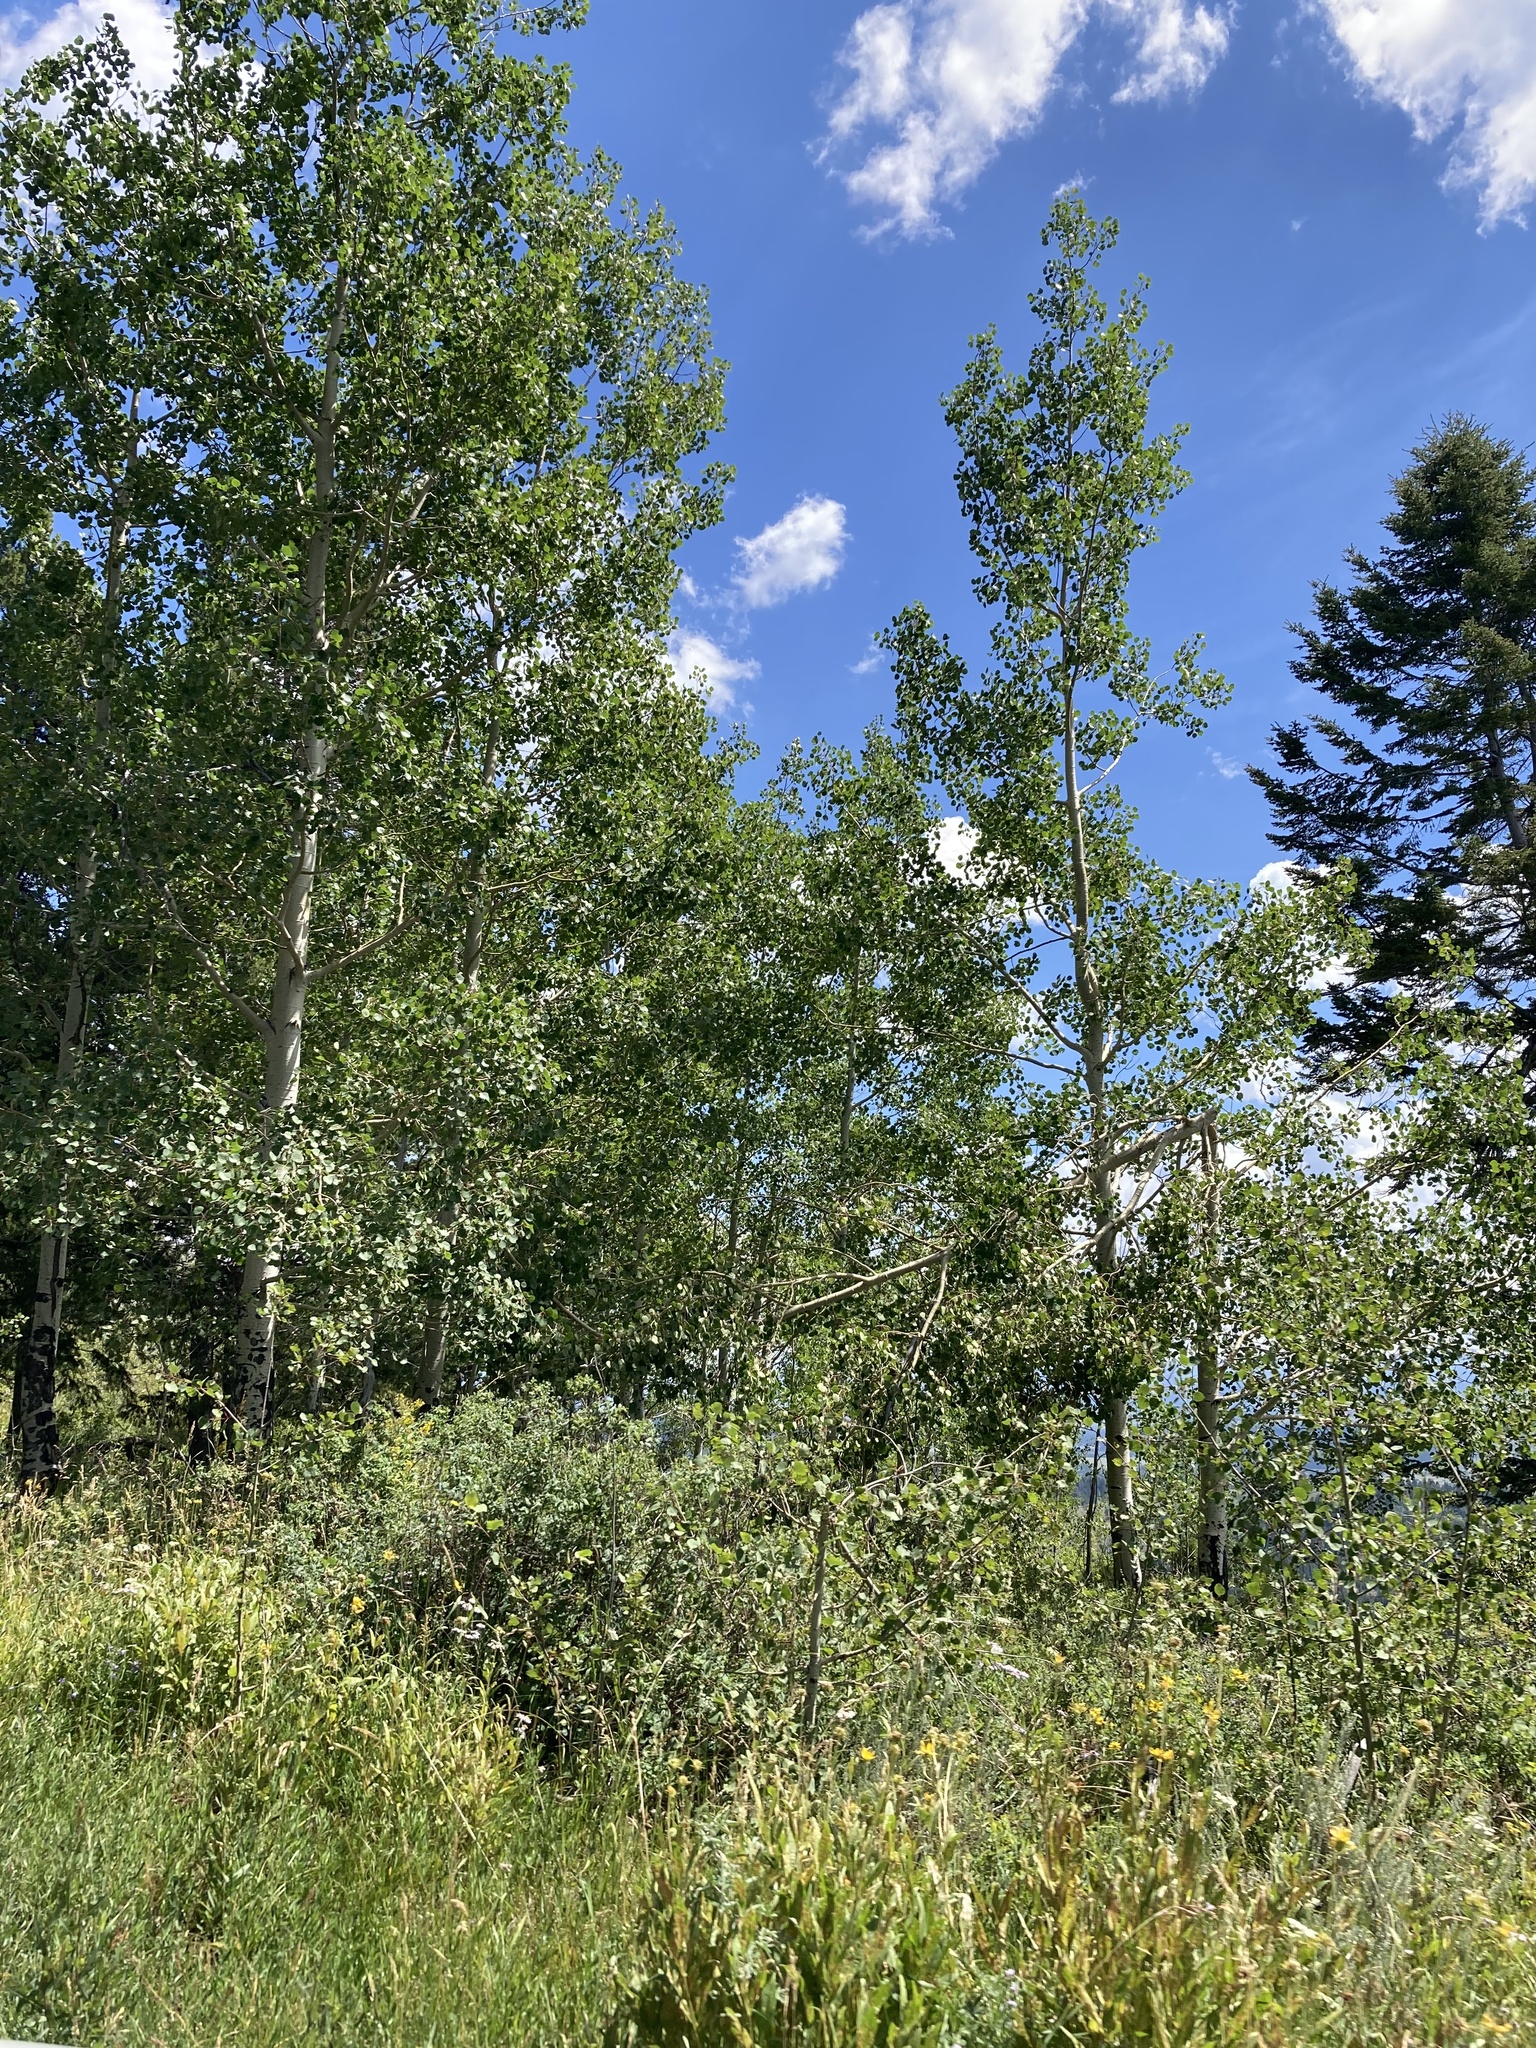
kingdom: Plantae
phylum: Tracheophyta
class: Magnoliopsida
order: Malpighiales
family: Salicaceae
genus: Populus
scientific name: Populus tremuloides
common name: Quaking aspen
